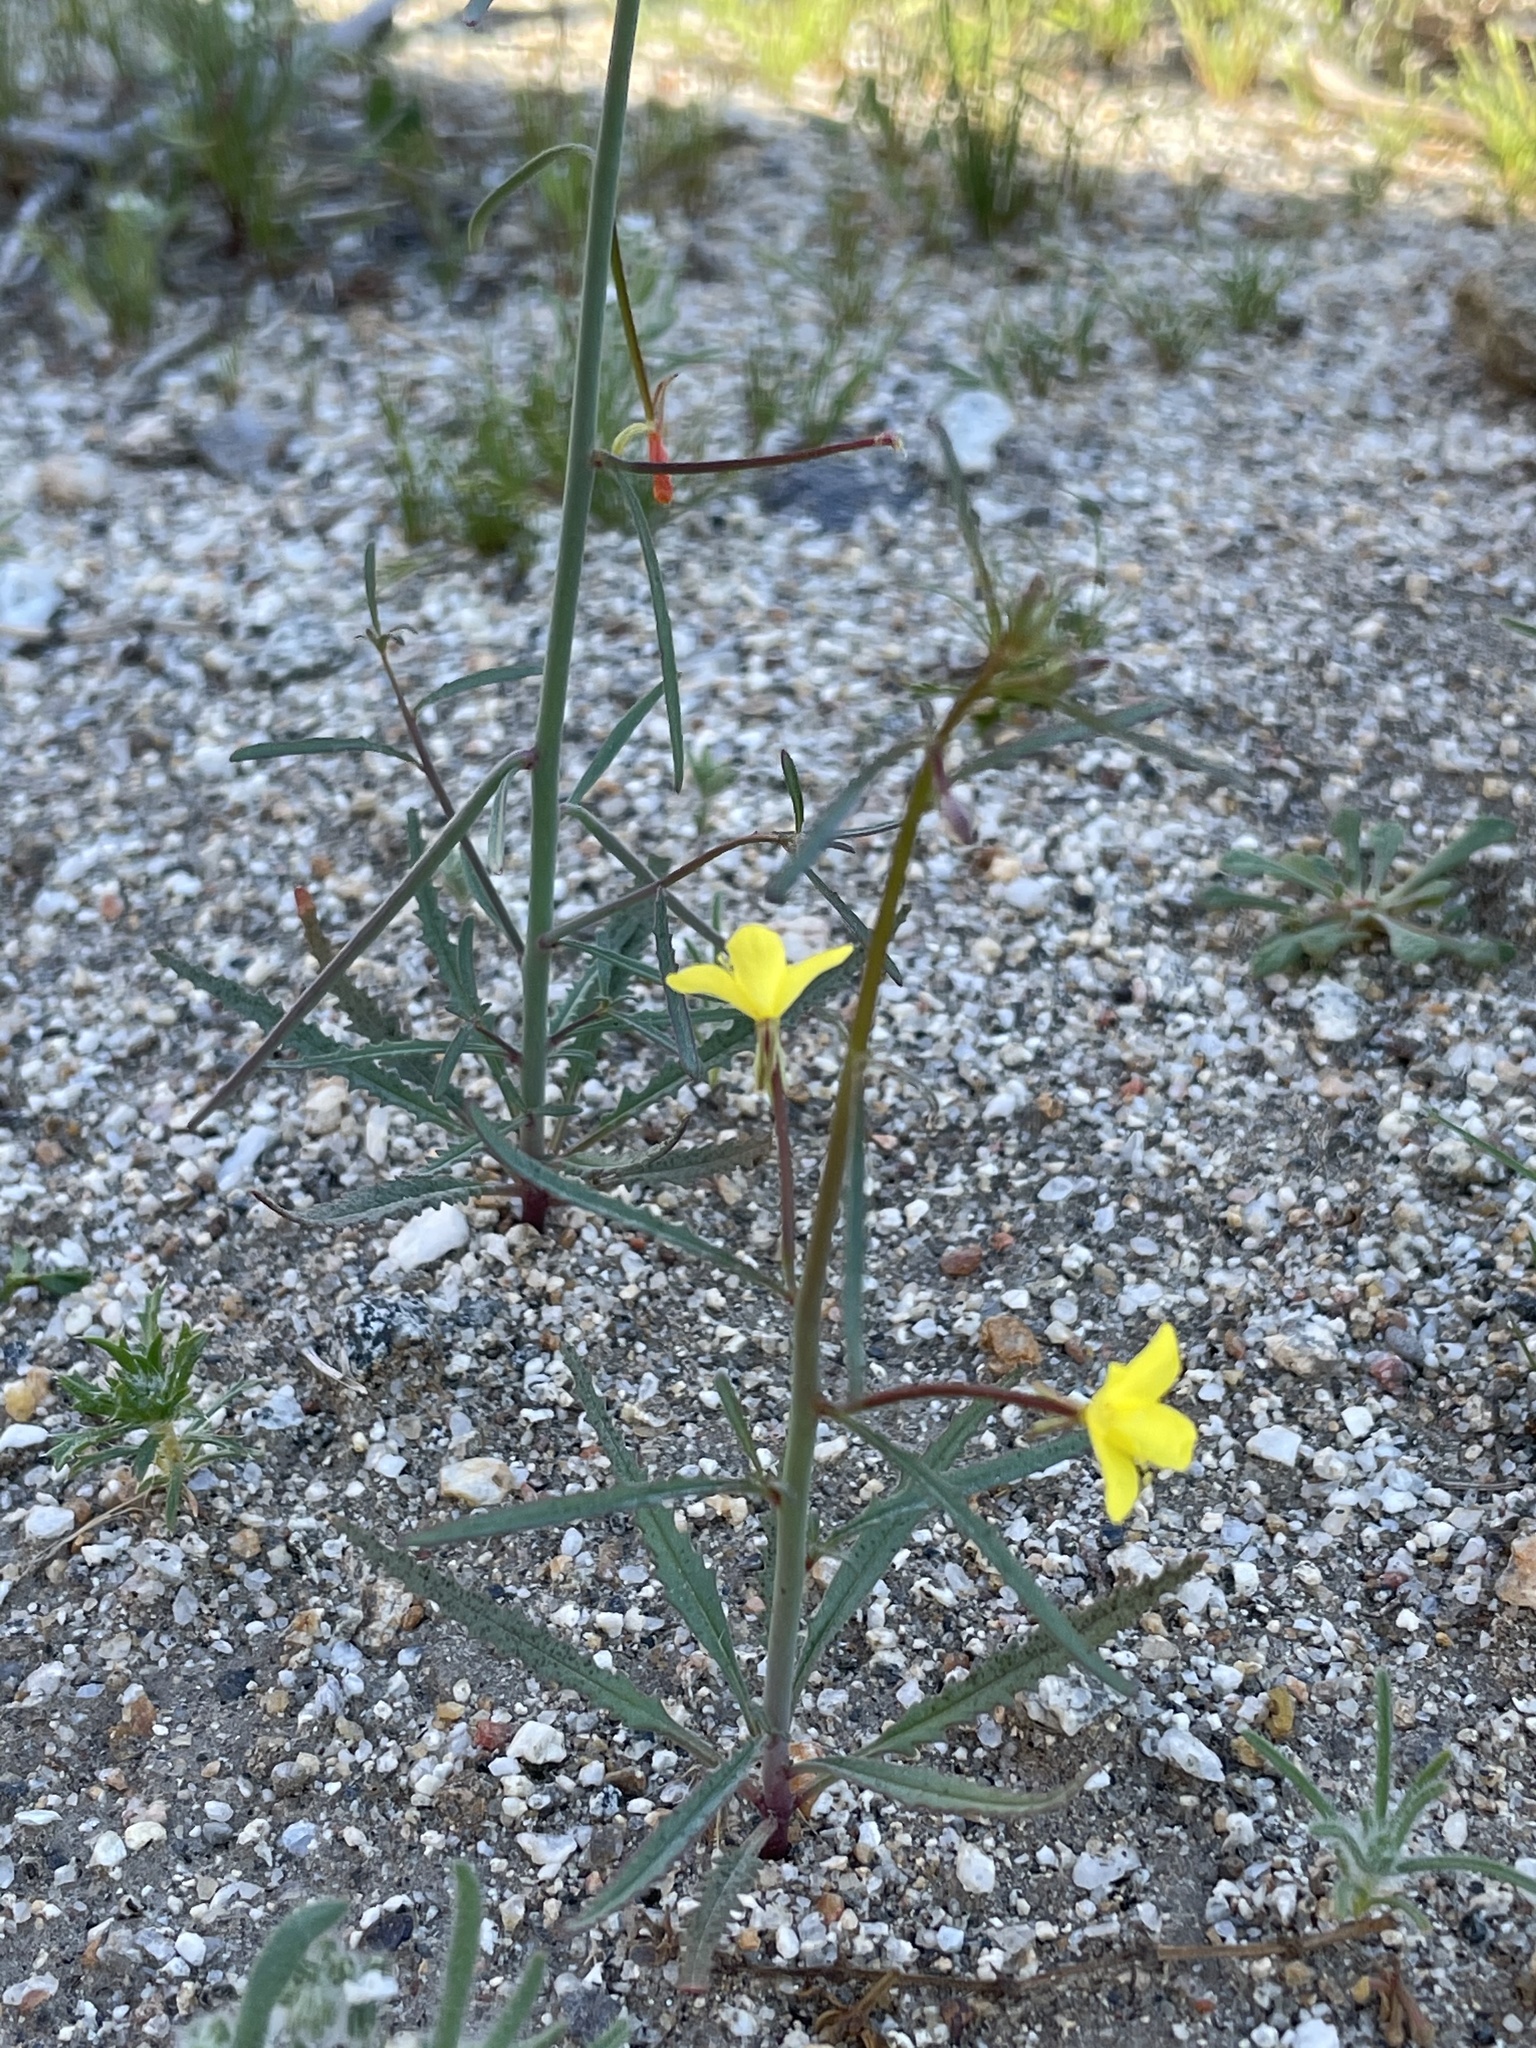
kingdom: Plantae
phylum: Tracheophyta
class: Magnoliopsida
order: Myrtales
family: Onagraceae
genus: Eulobus
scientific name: Eulobus californicus
